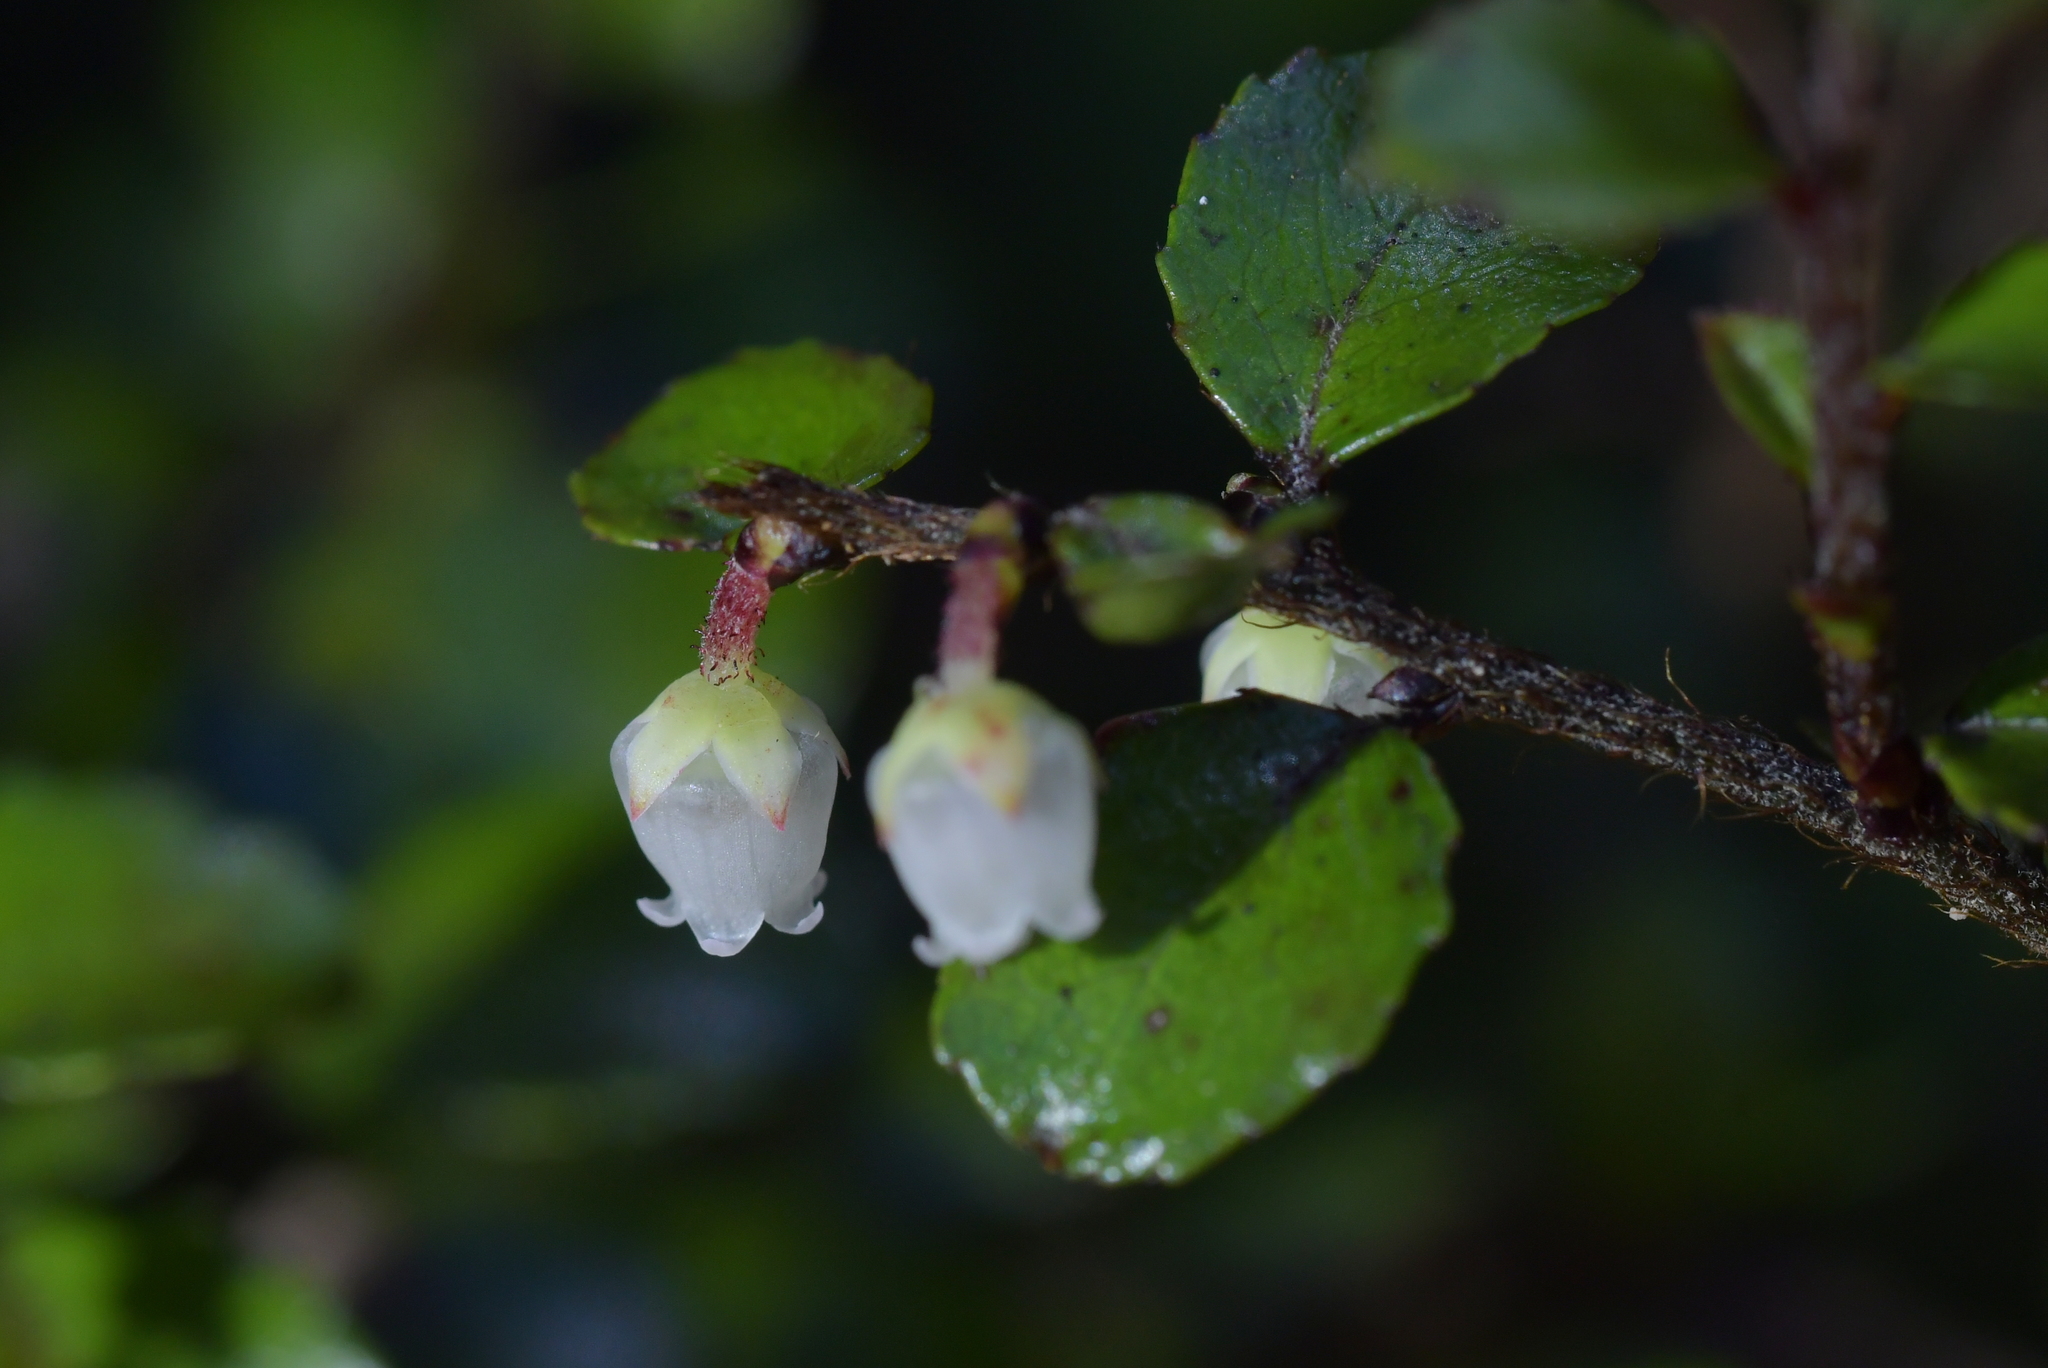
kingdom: Plantae
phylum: Tracheophyta
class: Magnoliopsida
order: Ericales
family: Ericaceae
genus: Gaultheria
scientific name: Gaultheria antipoda
